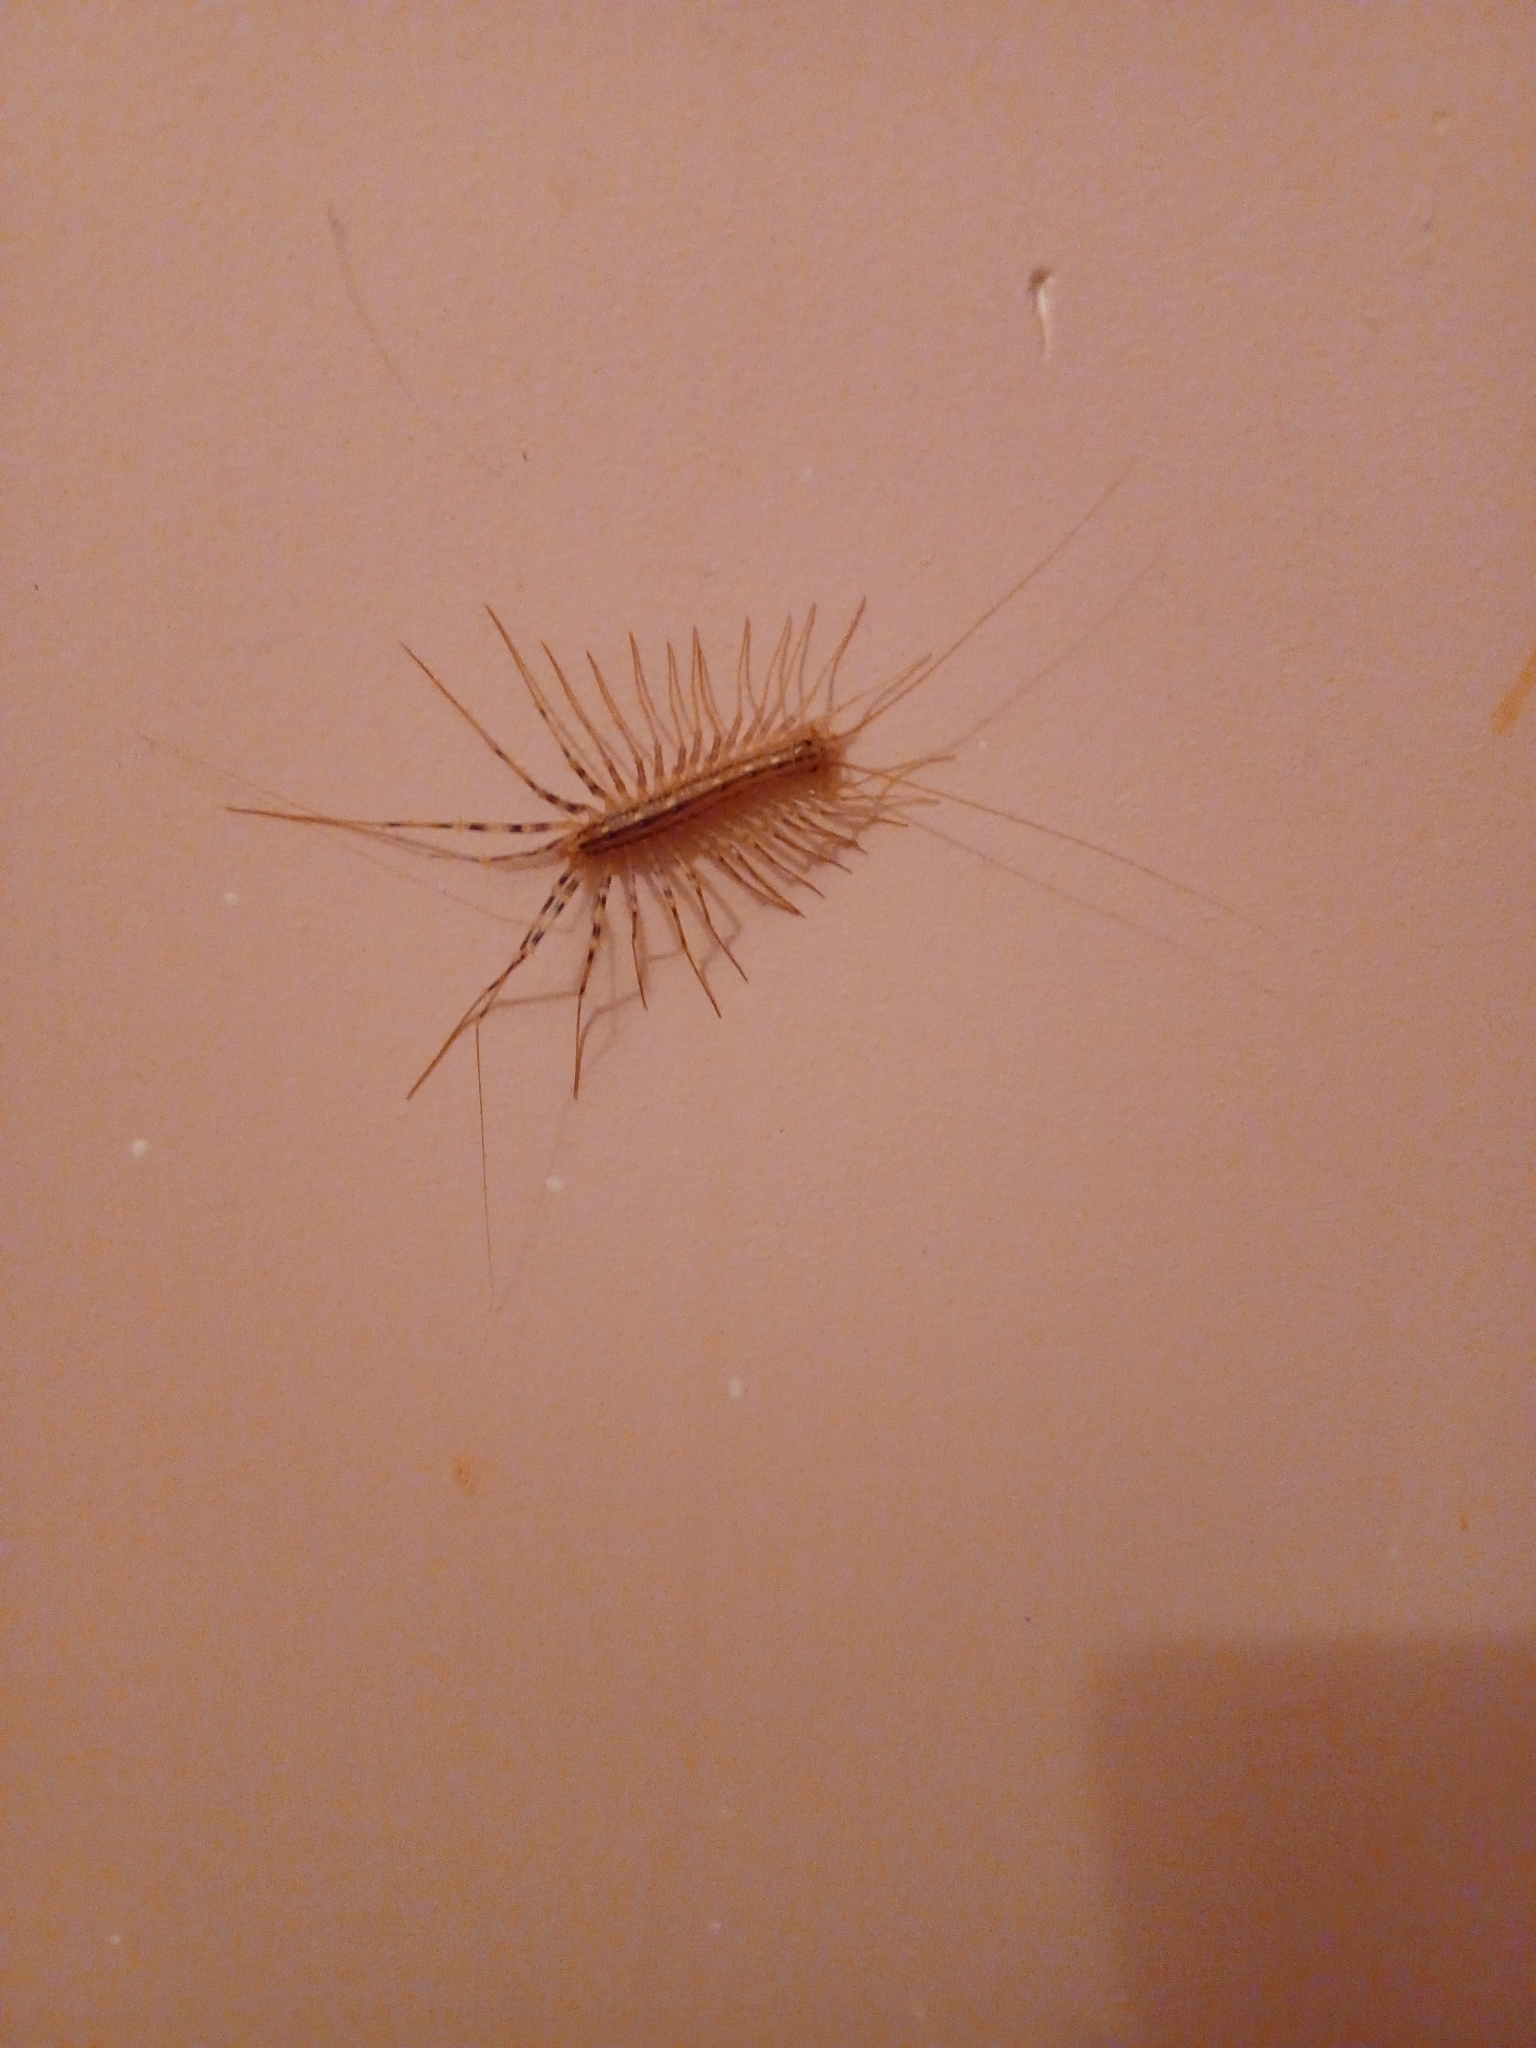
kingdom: Animalia
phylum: Arthropoda
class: Chilopoda
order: Scutigeromorpha
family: Scutigeridae
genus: Scutigera
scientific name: Scutigera coleoptrata
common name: House centipede
